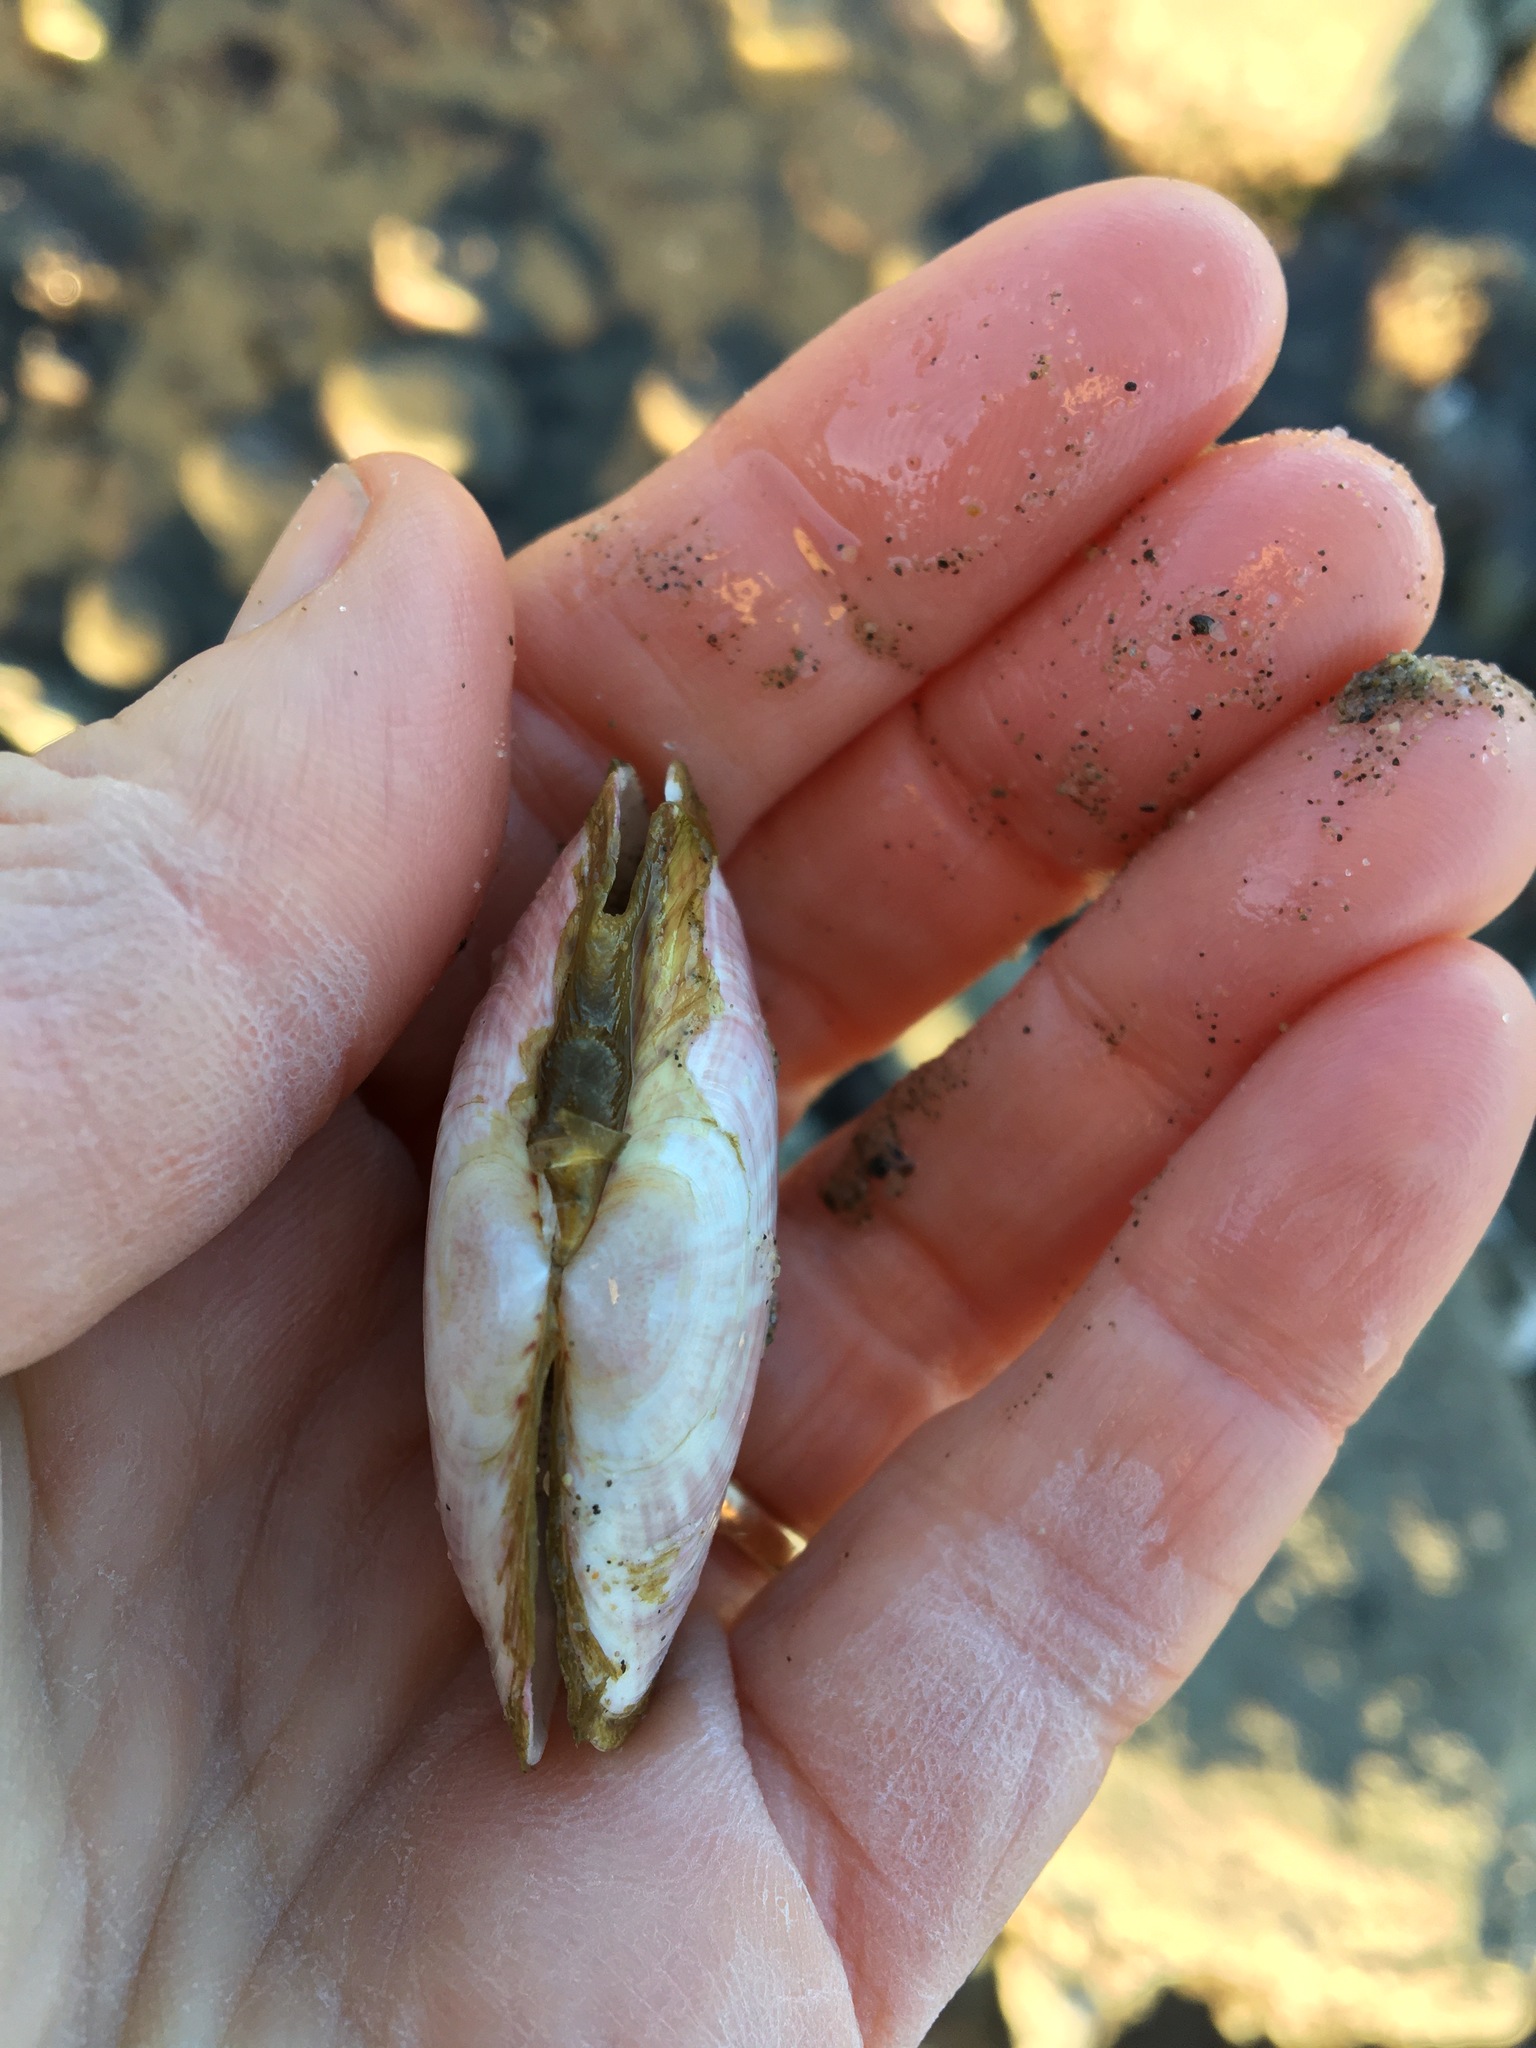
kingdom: Animalia
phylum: Mollusca
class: Bivalvia
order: Cardiida
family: Psammobiidae
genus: Gari
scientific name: Gari californica
